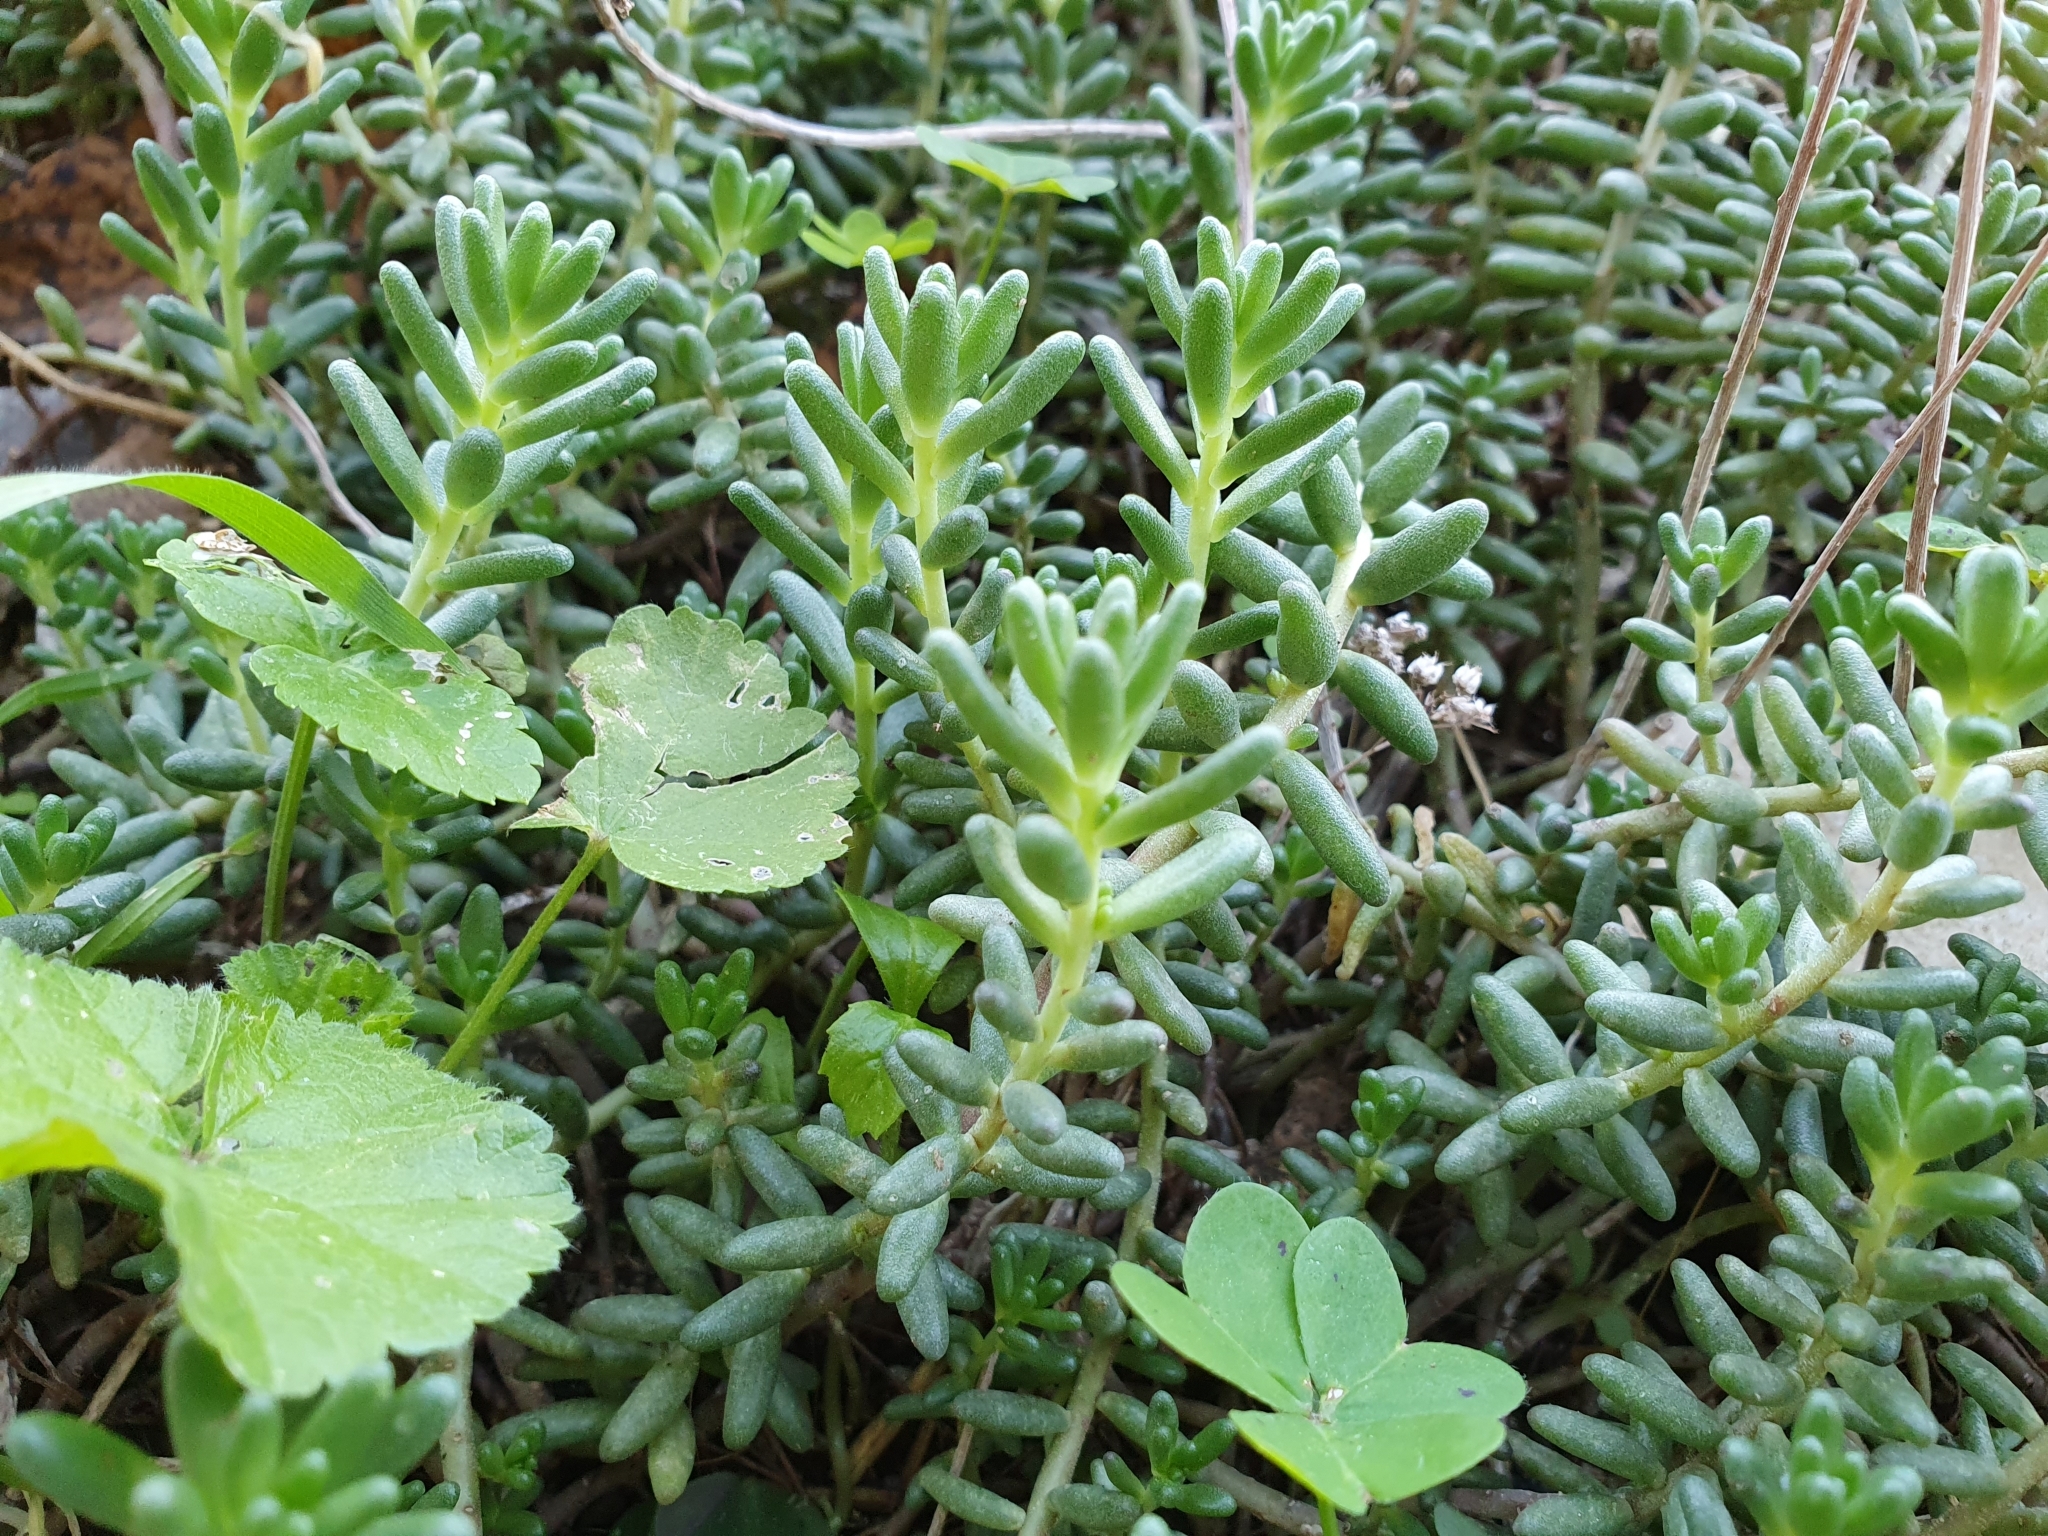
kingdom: Plantae
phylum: Tracheophyta
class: Magnoliopsida
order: Saxifragales
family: Crassulaceae
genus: Sedum
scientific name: Sedum album
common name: White stonecrop
